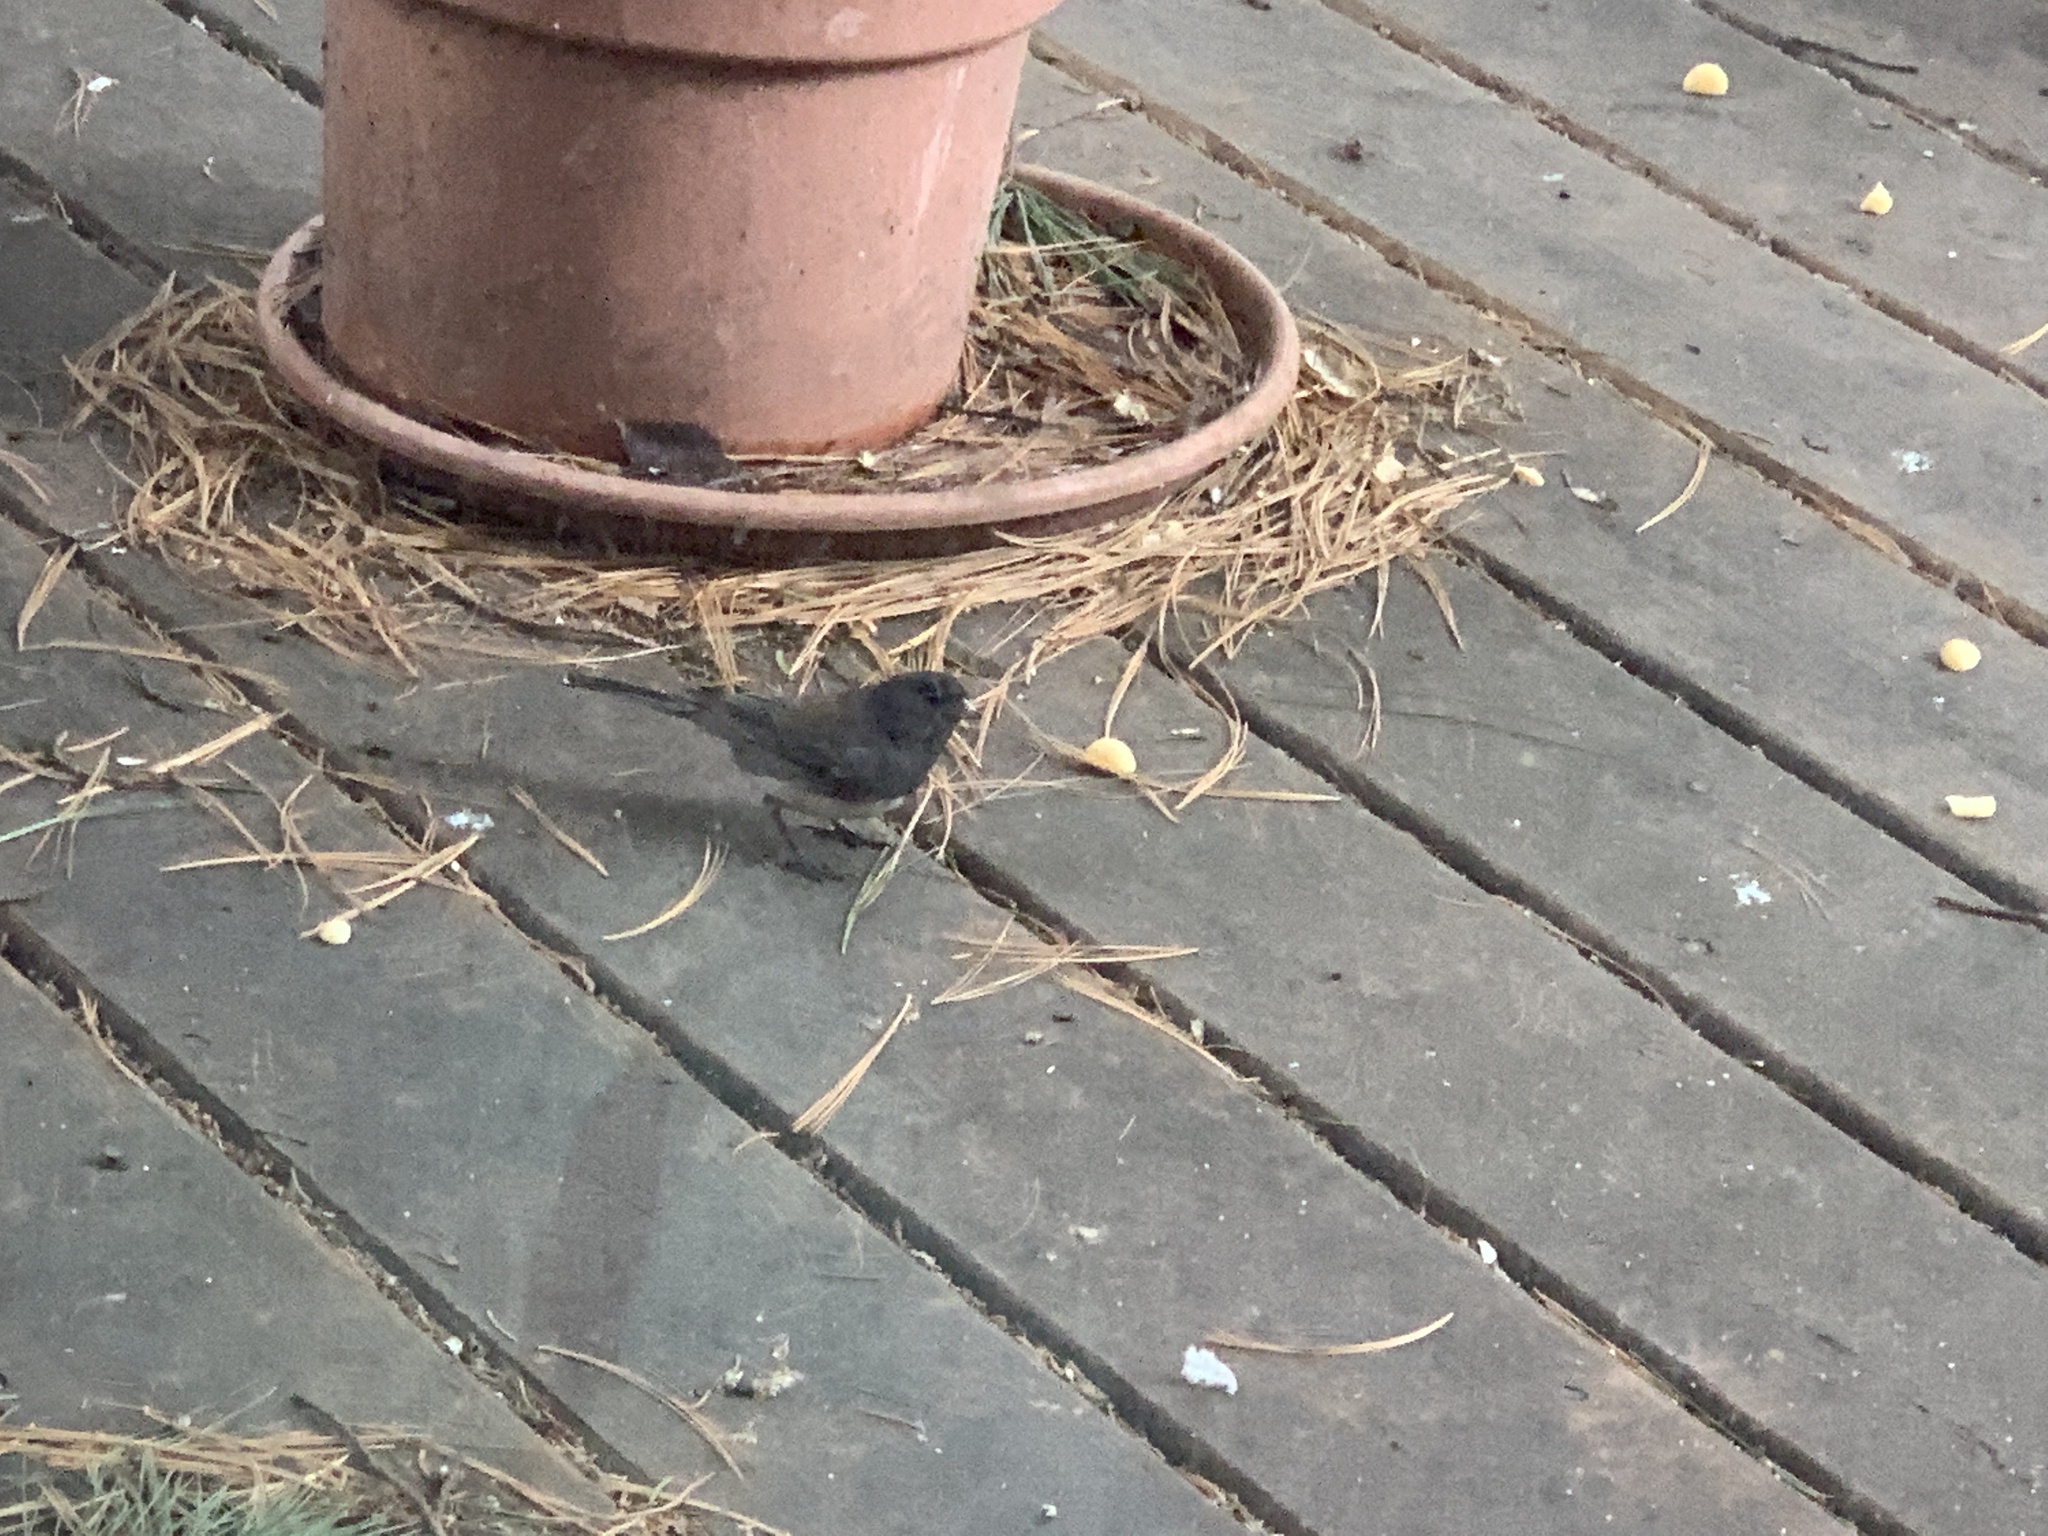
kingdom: Animalia
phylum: Chordata
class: Aves
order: Passeriformes
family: Passerellidae
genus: Junco
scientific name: Junco hyemalis
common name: Dark-eyed junco
